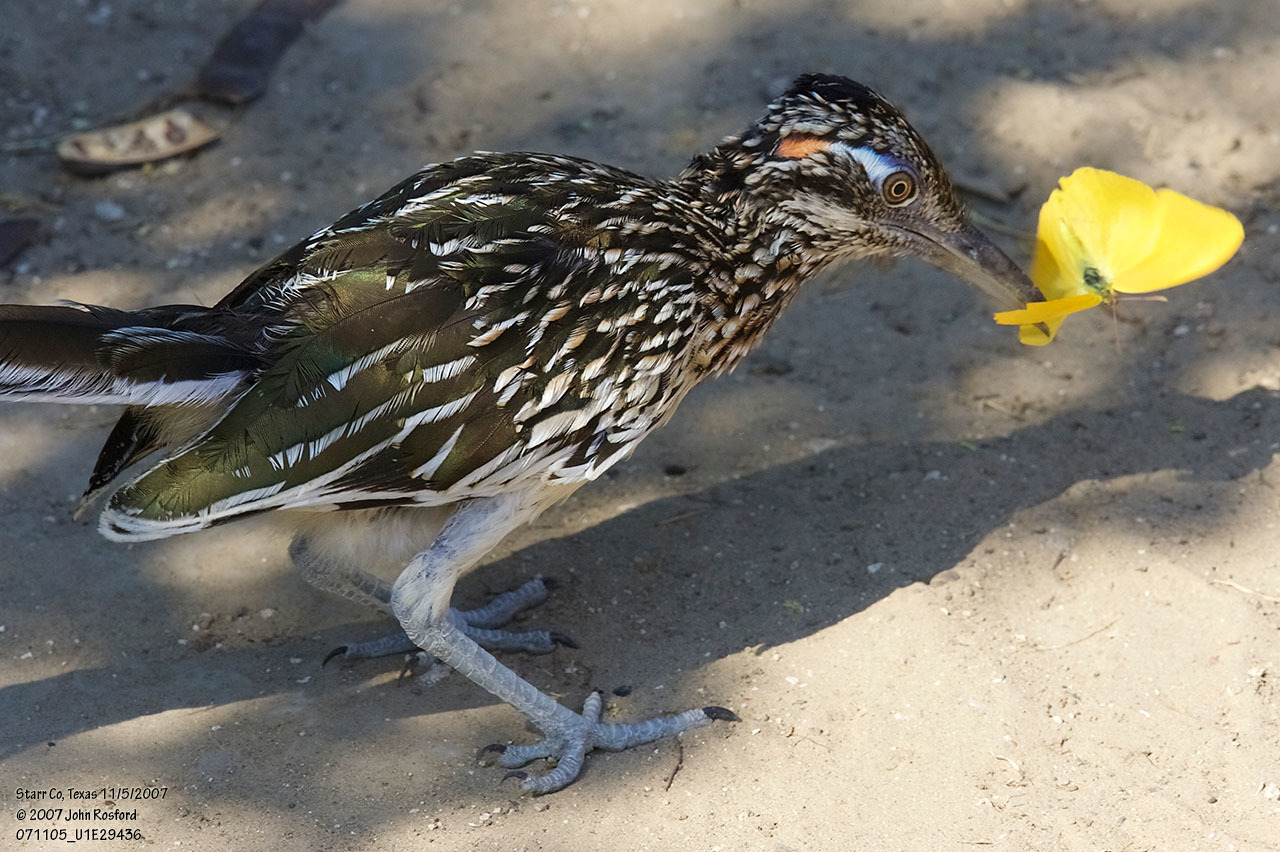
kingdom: Animalia
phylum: Chordata
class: Aves
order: Cuculiformes
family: Cuculidae
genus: Geococcyx
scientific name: Geococcyx californianus
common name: Greater roadrunner
